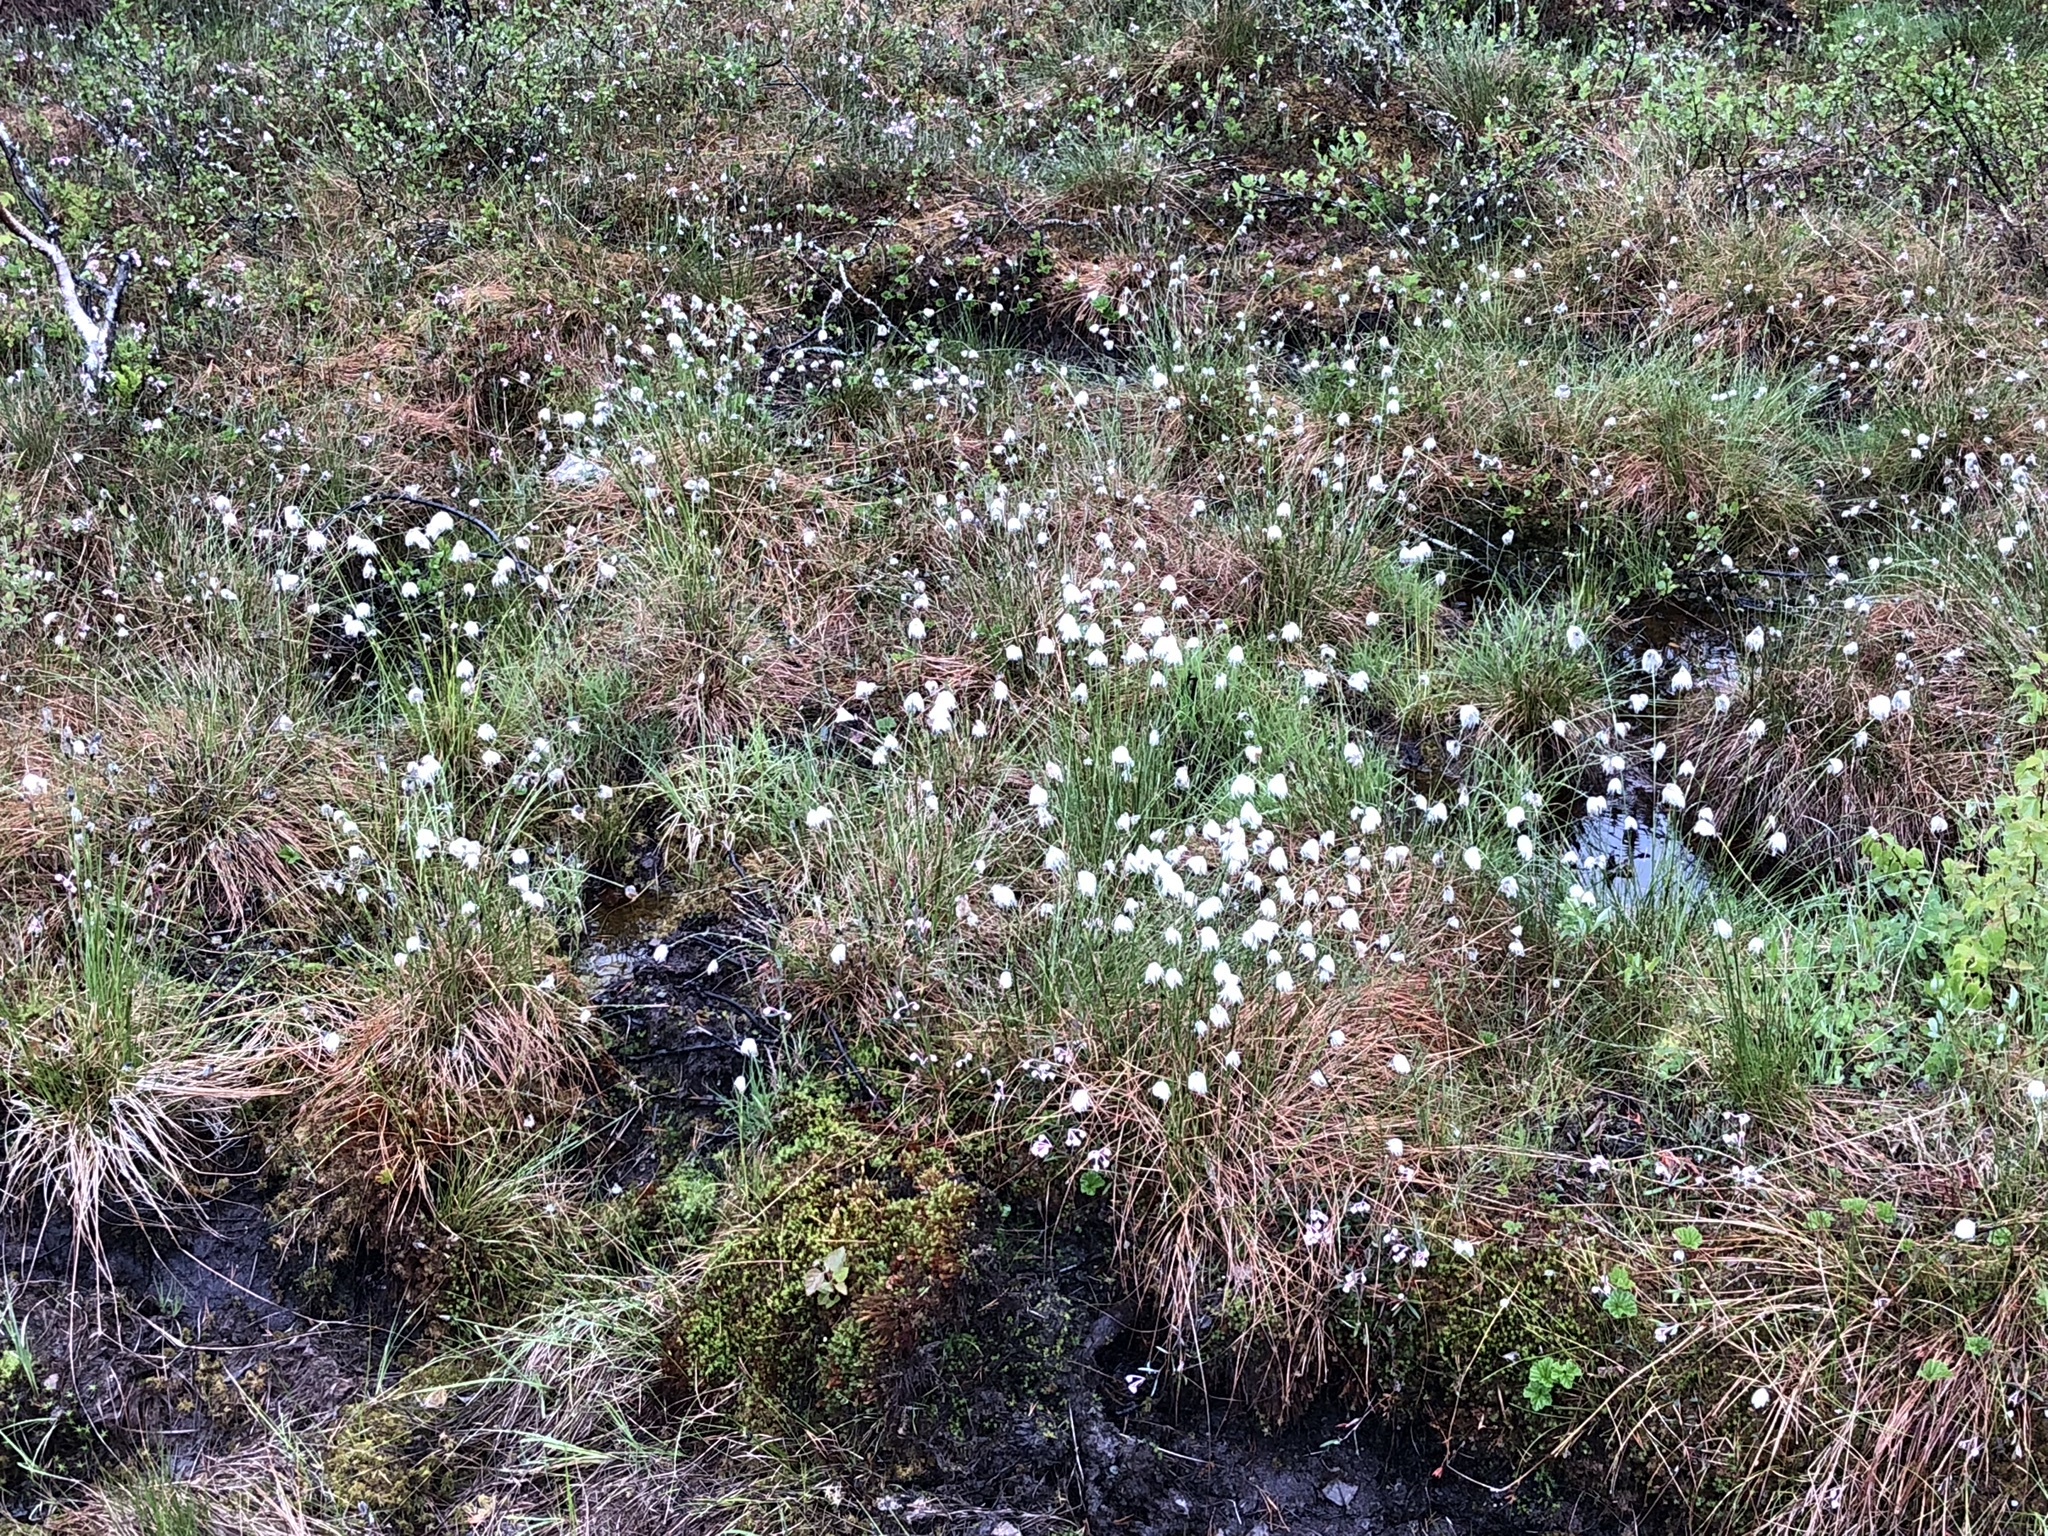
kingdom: Plantae
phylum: Tracheophyta
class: Liliopsida
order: Poales
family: Cyperaceae
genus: Eriophorum
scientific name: Eriophorum vaginatum
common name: Hare's-tail cottongrass
